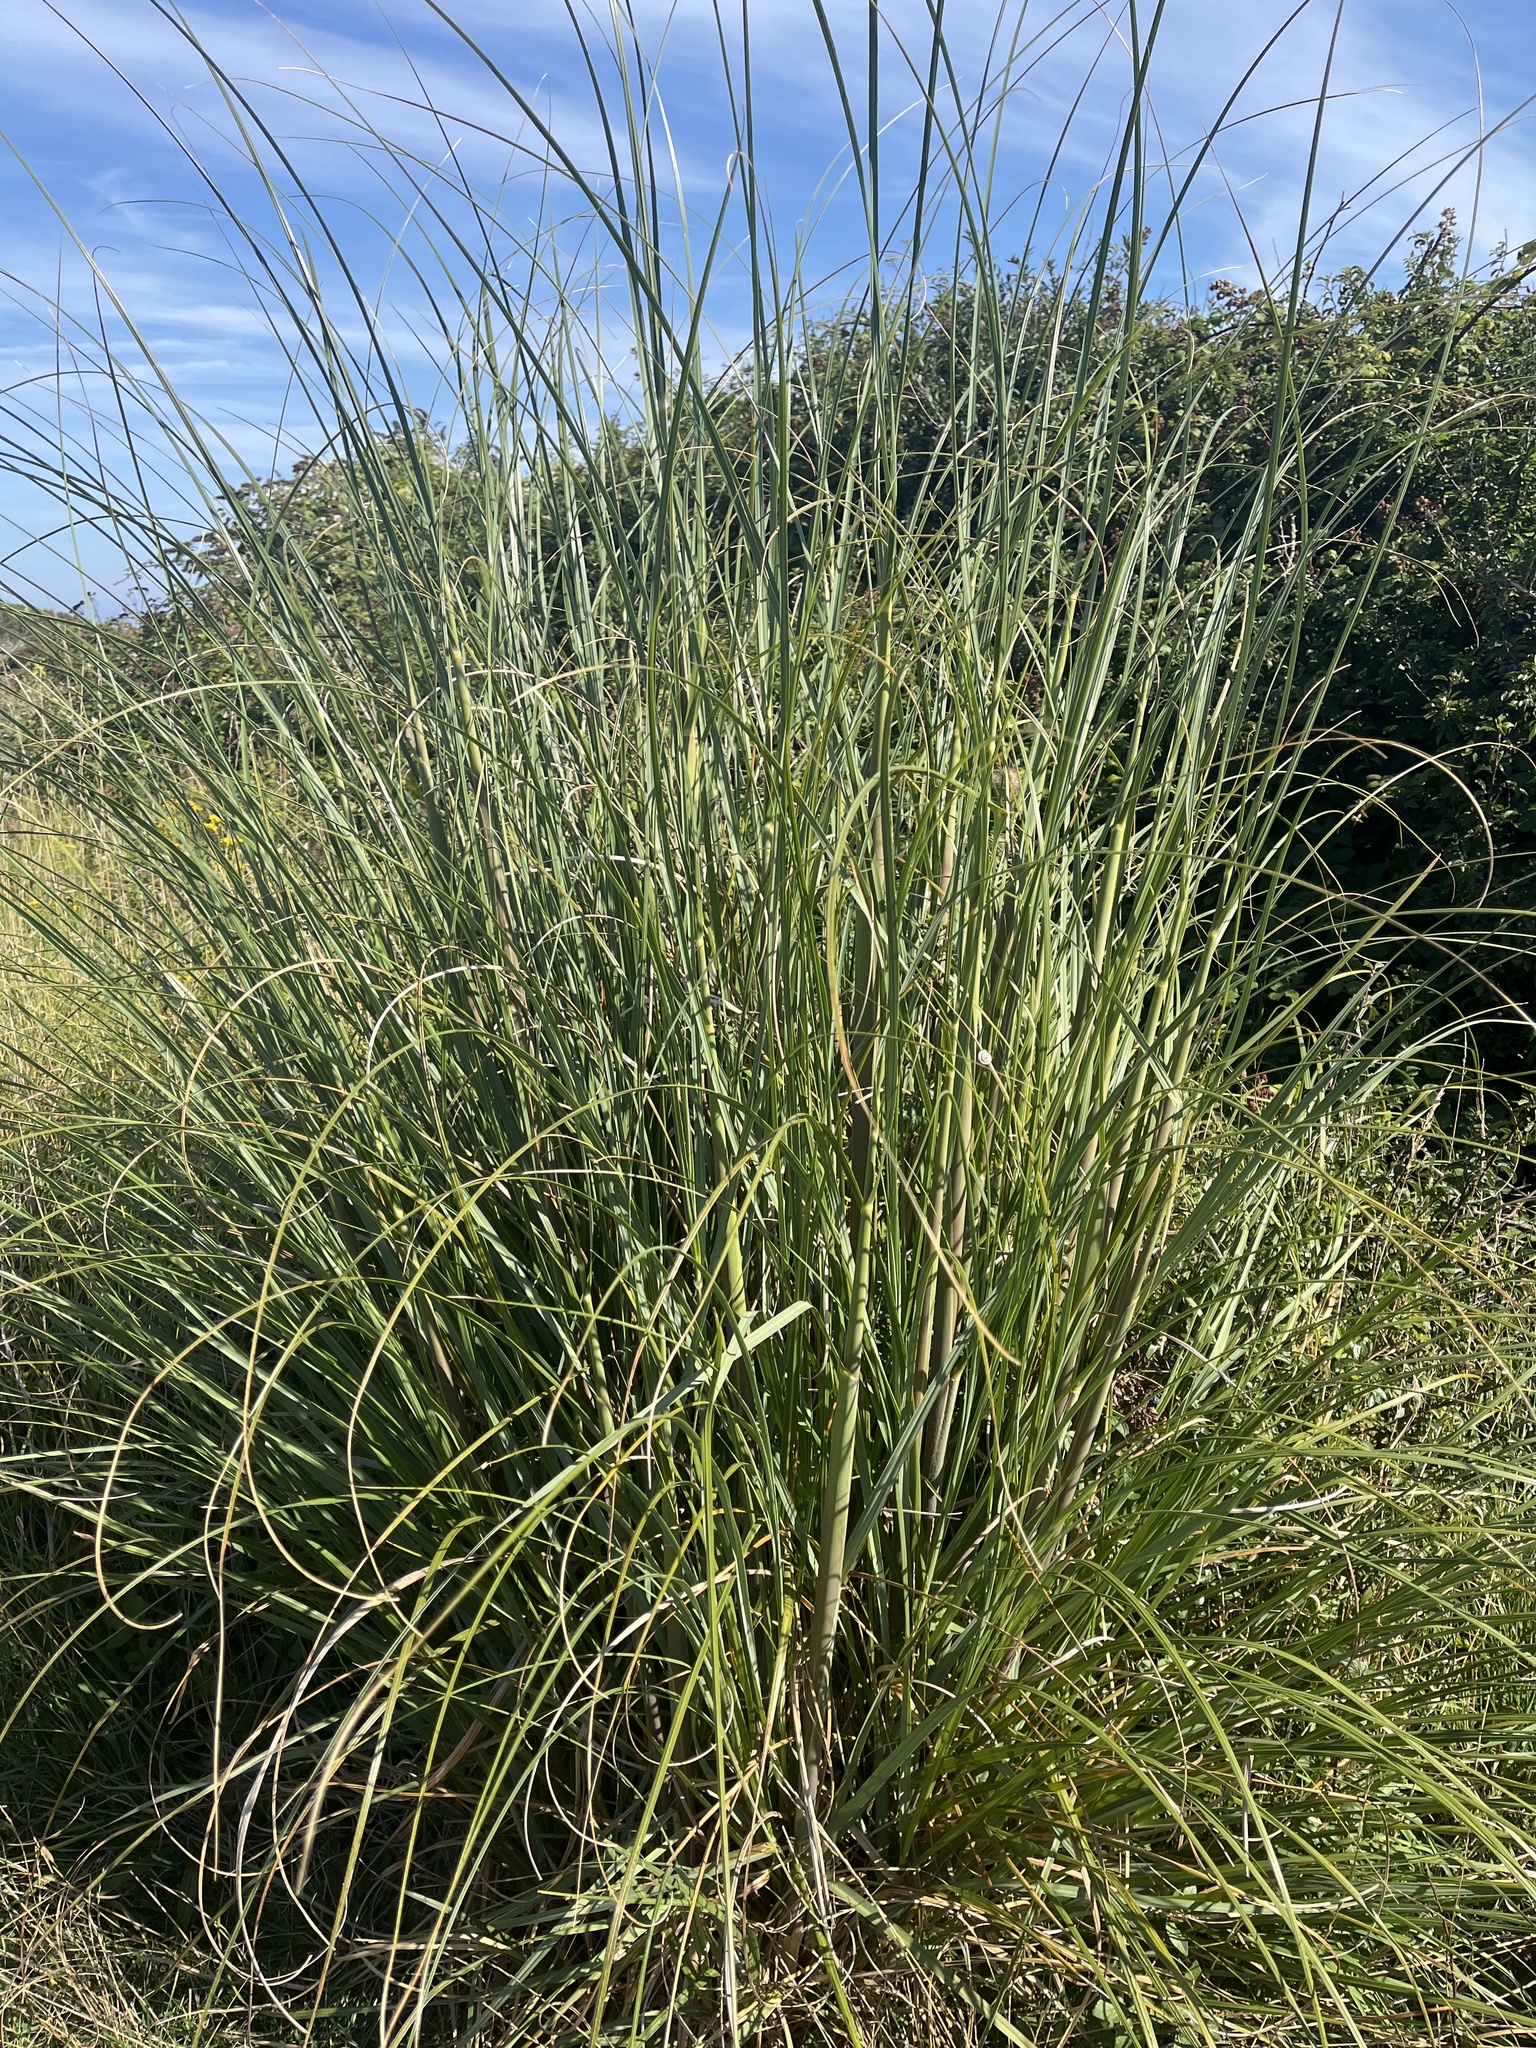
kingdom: Plantae
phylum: Tracheophyta
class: Liliopsida
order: Poales
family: Poaceae
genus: Cortaderia
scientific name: Cortaderia selloana
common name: Uruguayan pampas grass
